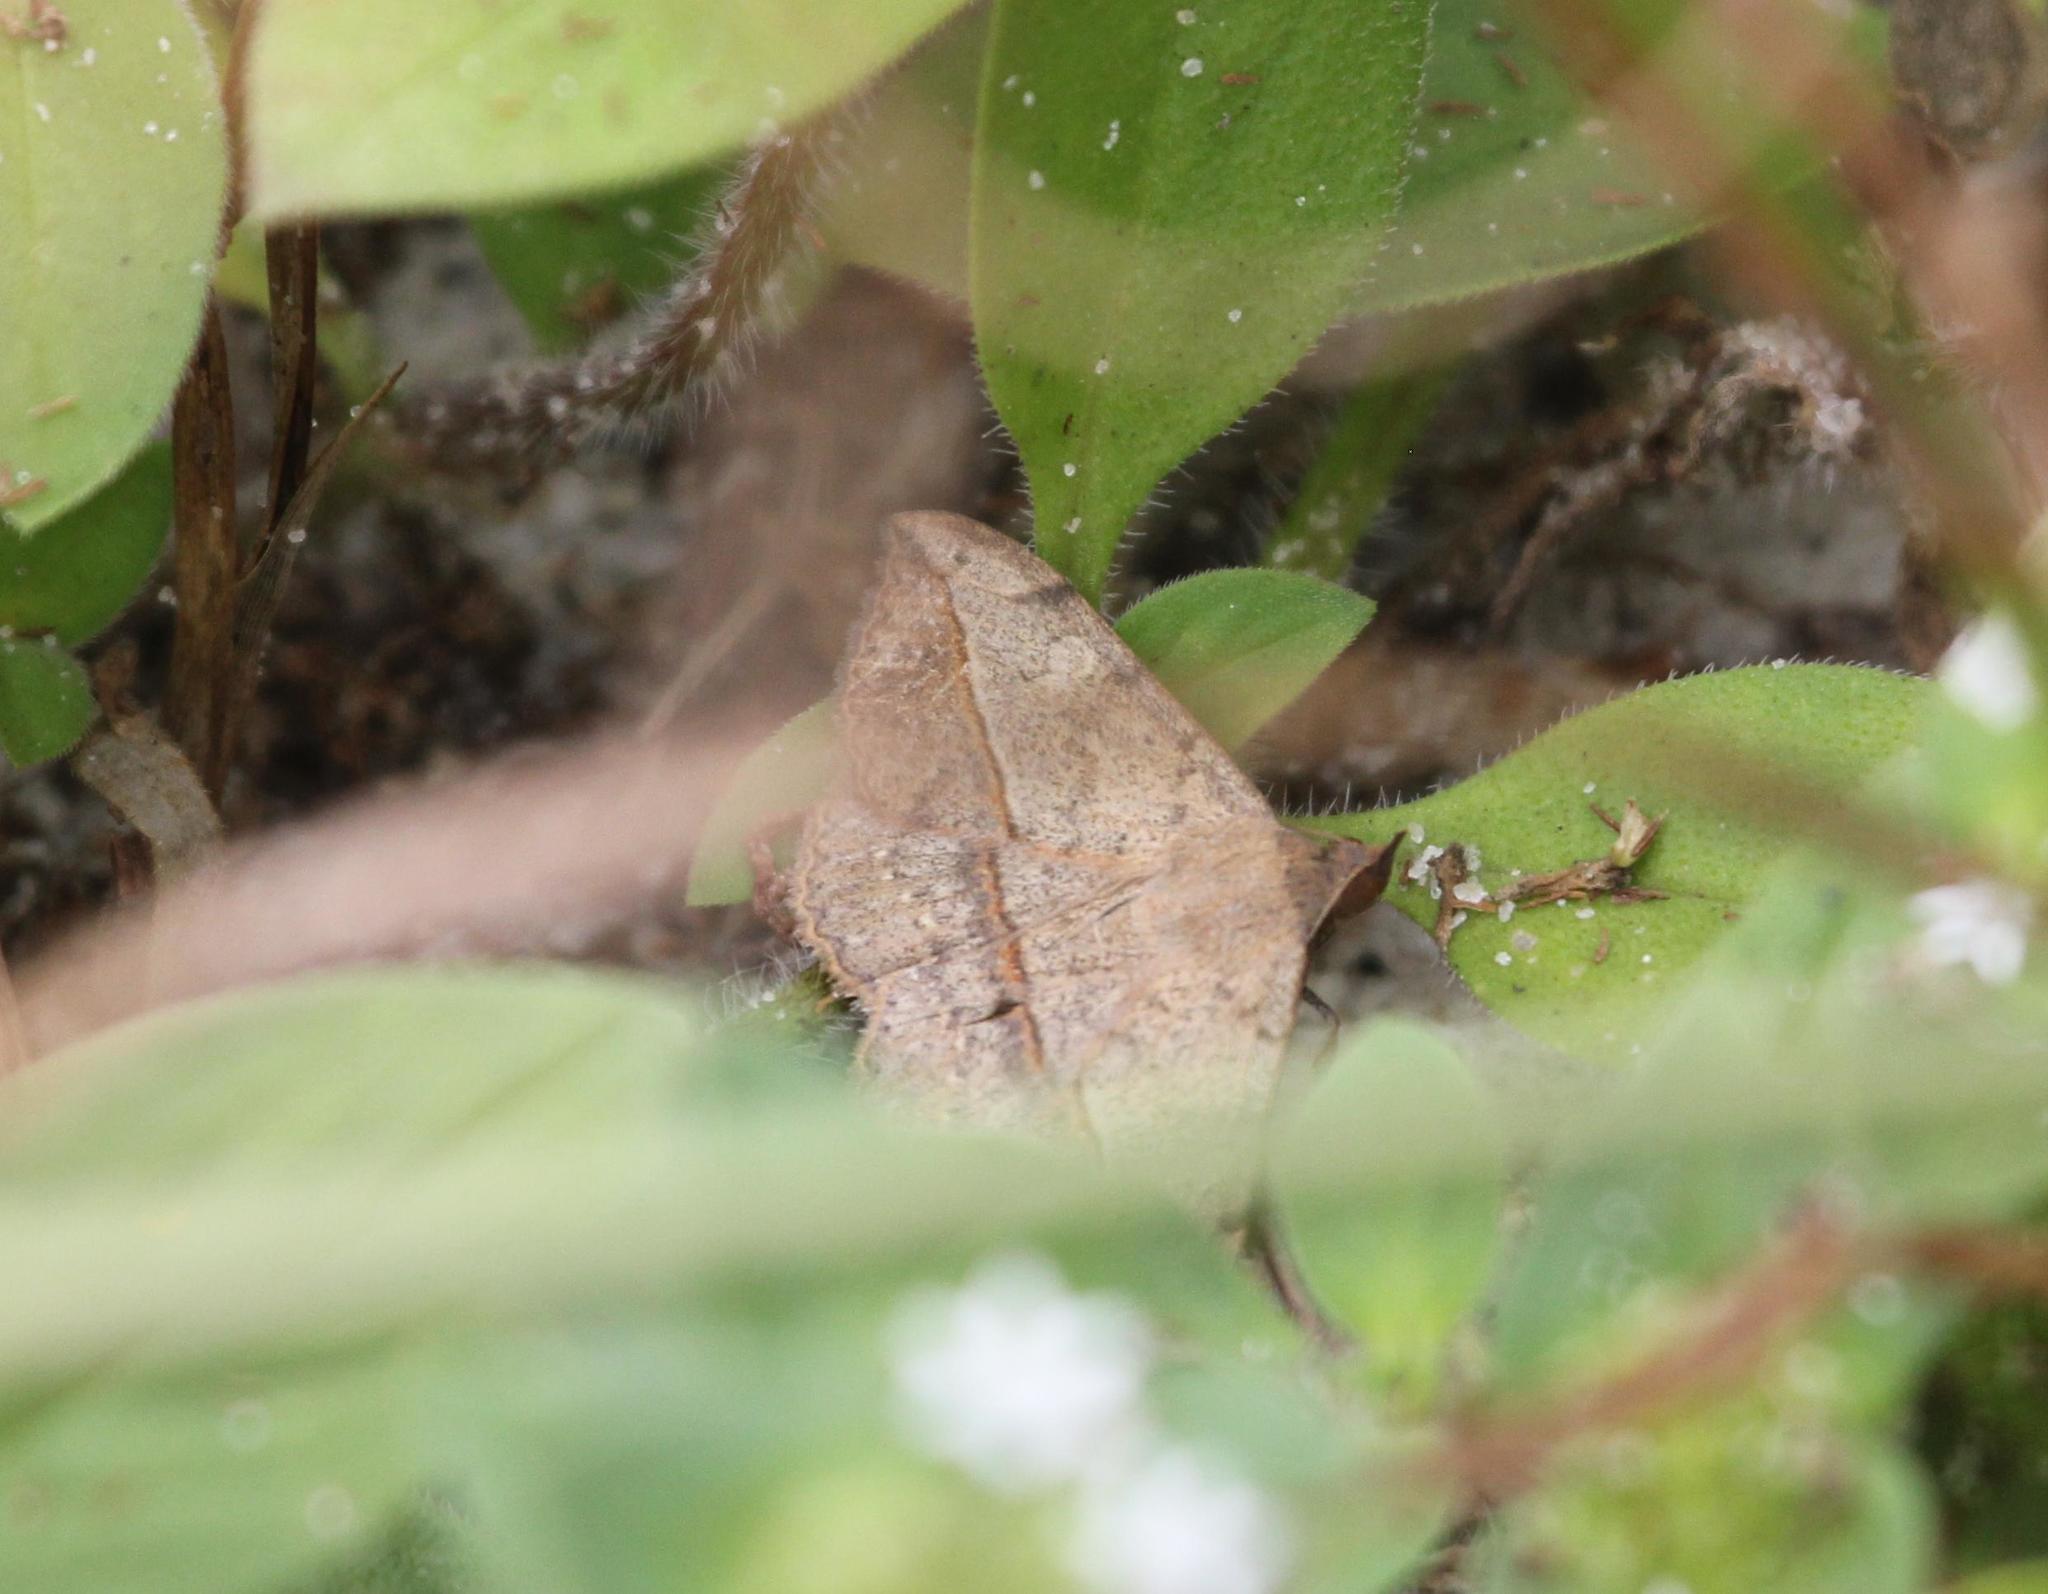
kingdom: Animalia
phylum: Arthropoda
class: Insecta
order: Lepidoptera
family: Erebidae
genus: Anticarsia
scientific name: Anticarsia gemmatalis
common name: Cutworm moth
